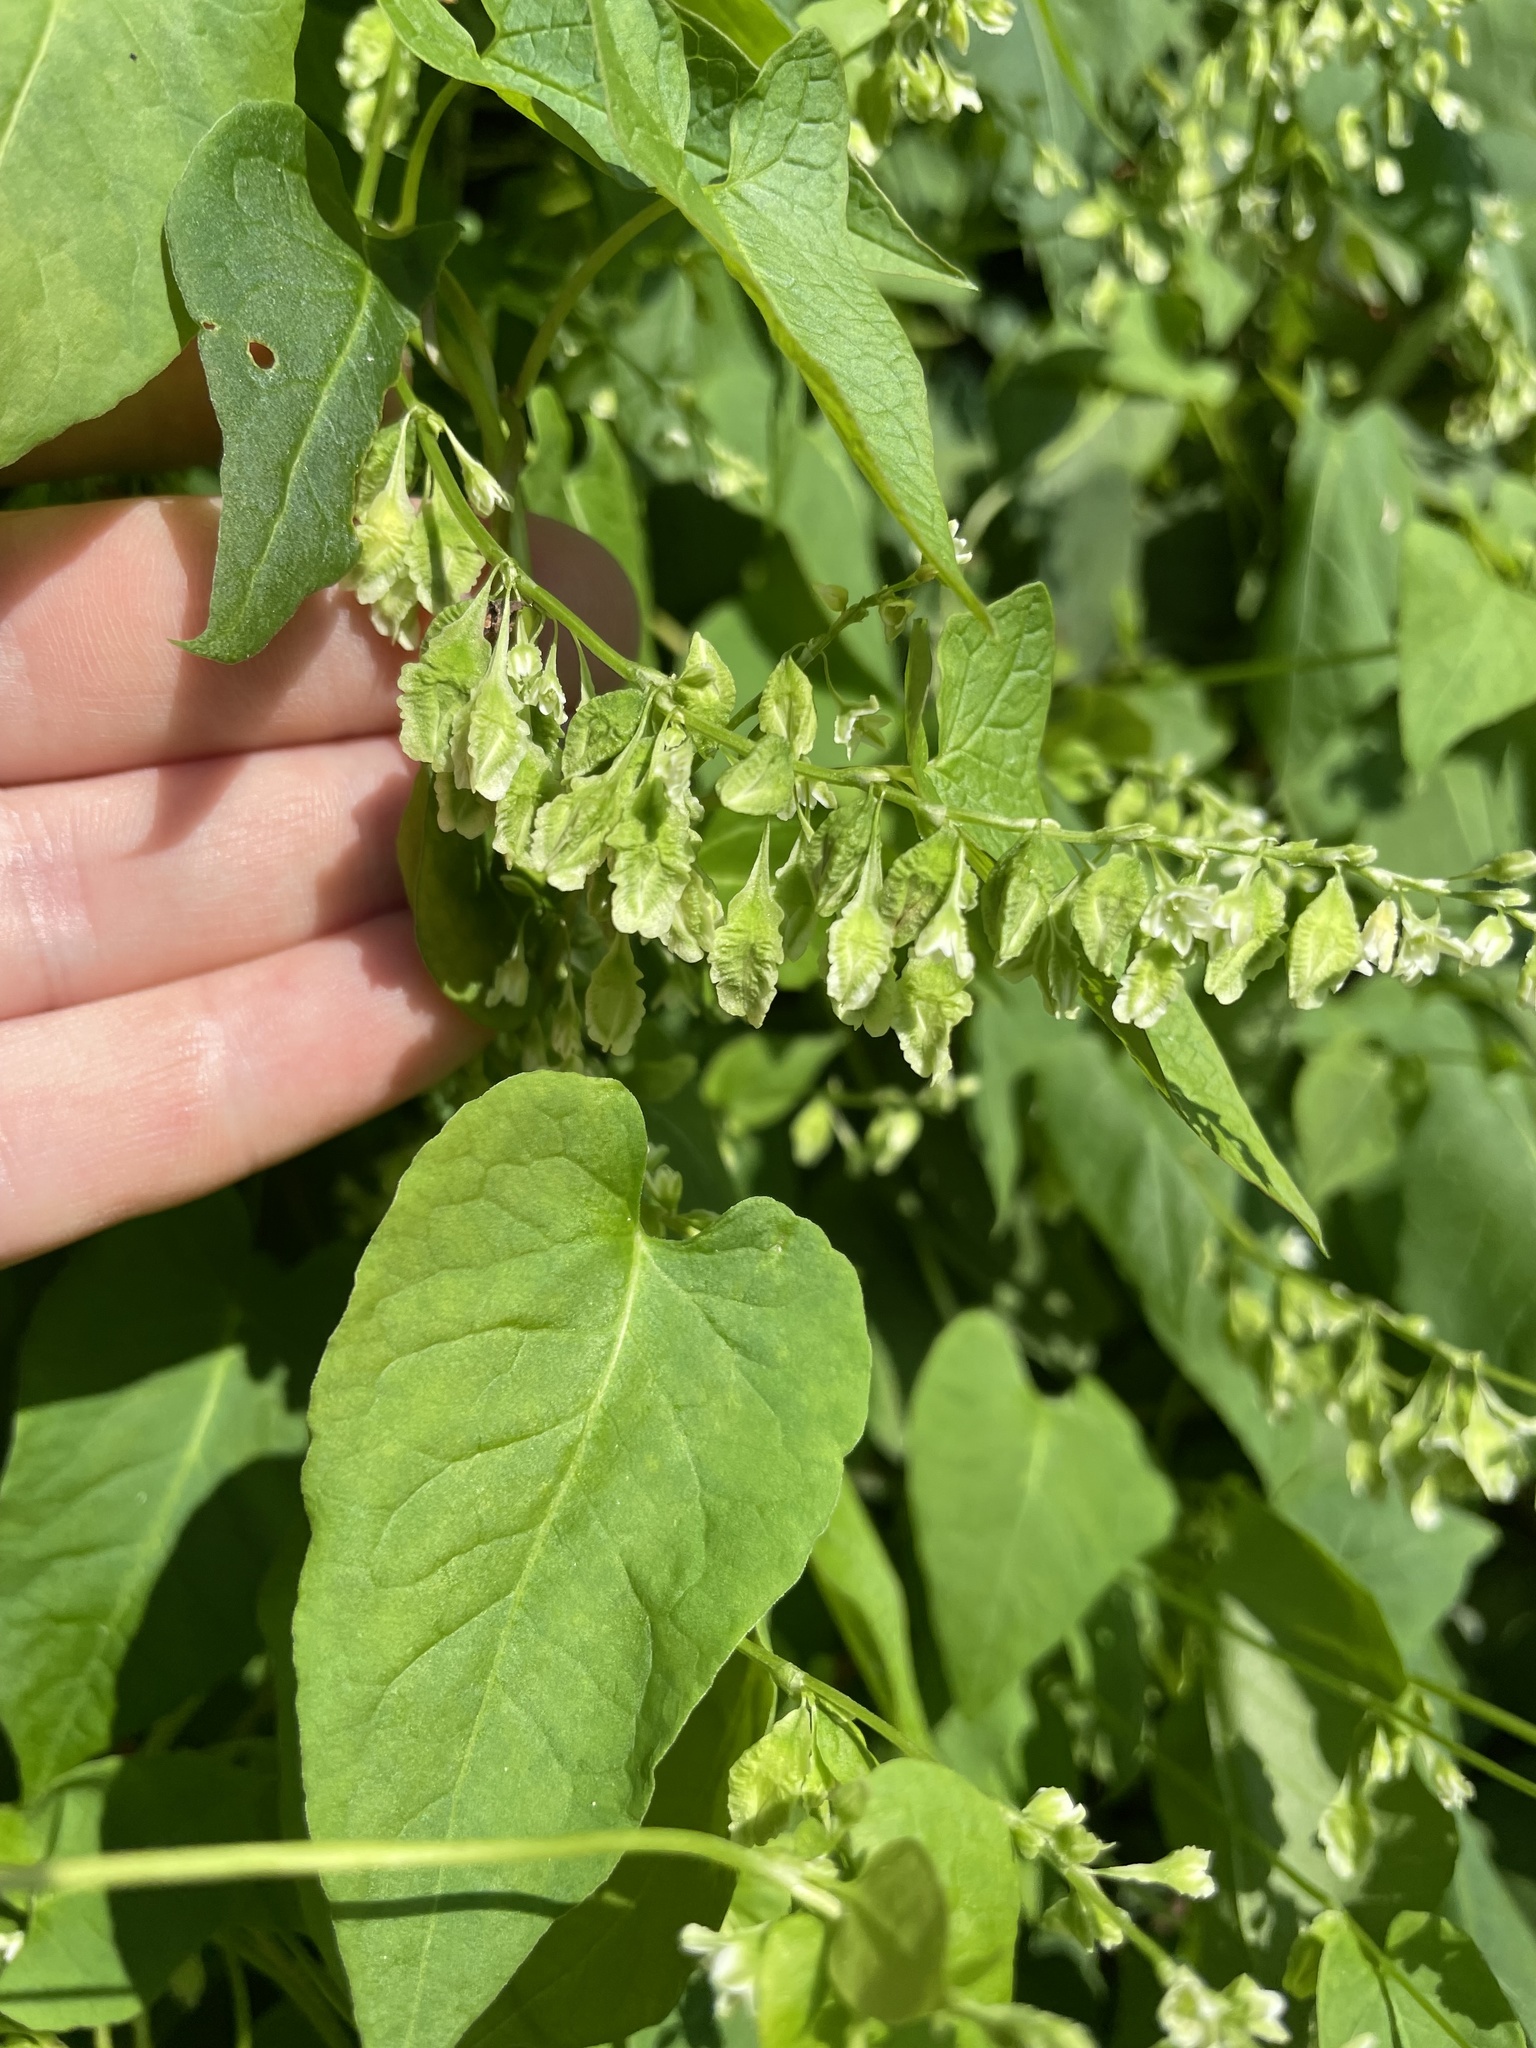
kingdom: Plantae
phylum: Tracheophyta
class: Magnoliopsida
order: Caryophyllales
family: Polygonaceae
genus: Fallopia
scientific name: Fallopia scandens
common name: Climbing false buckwheat
